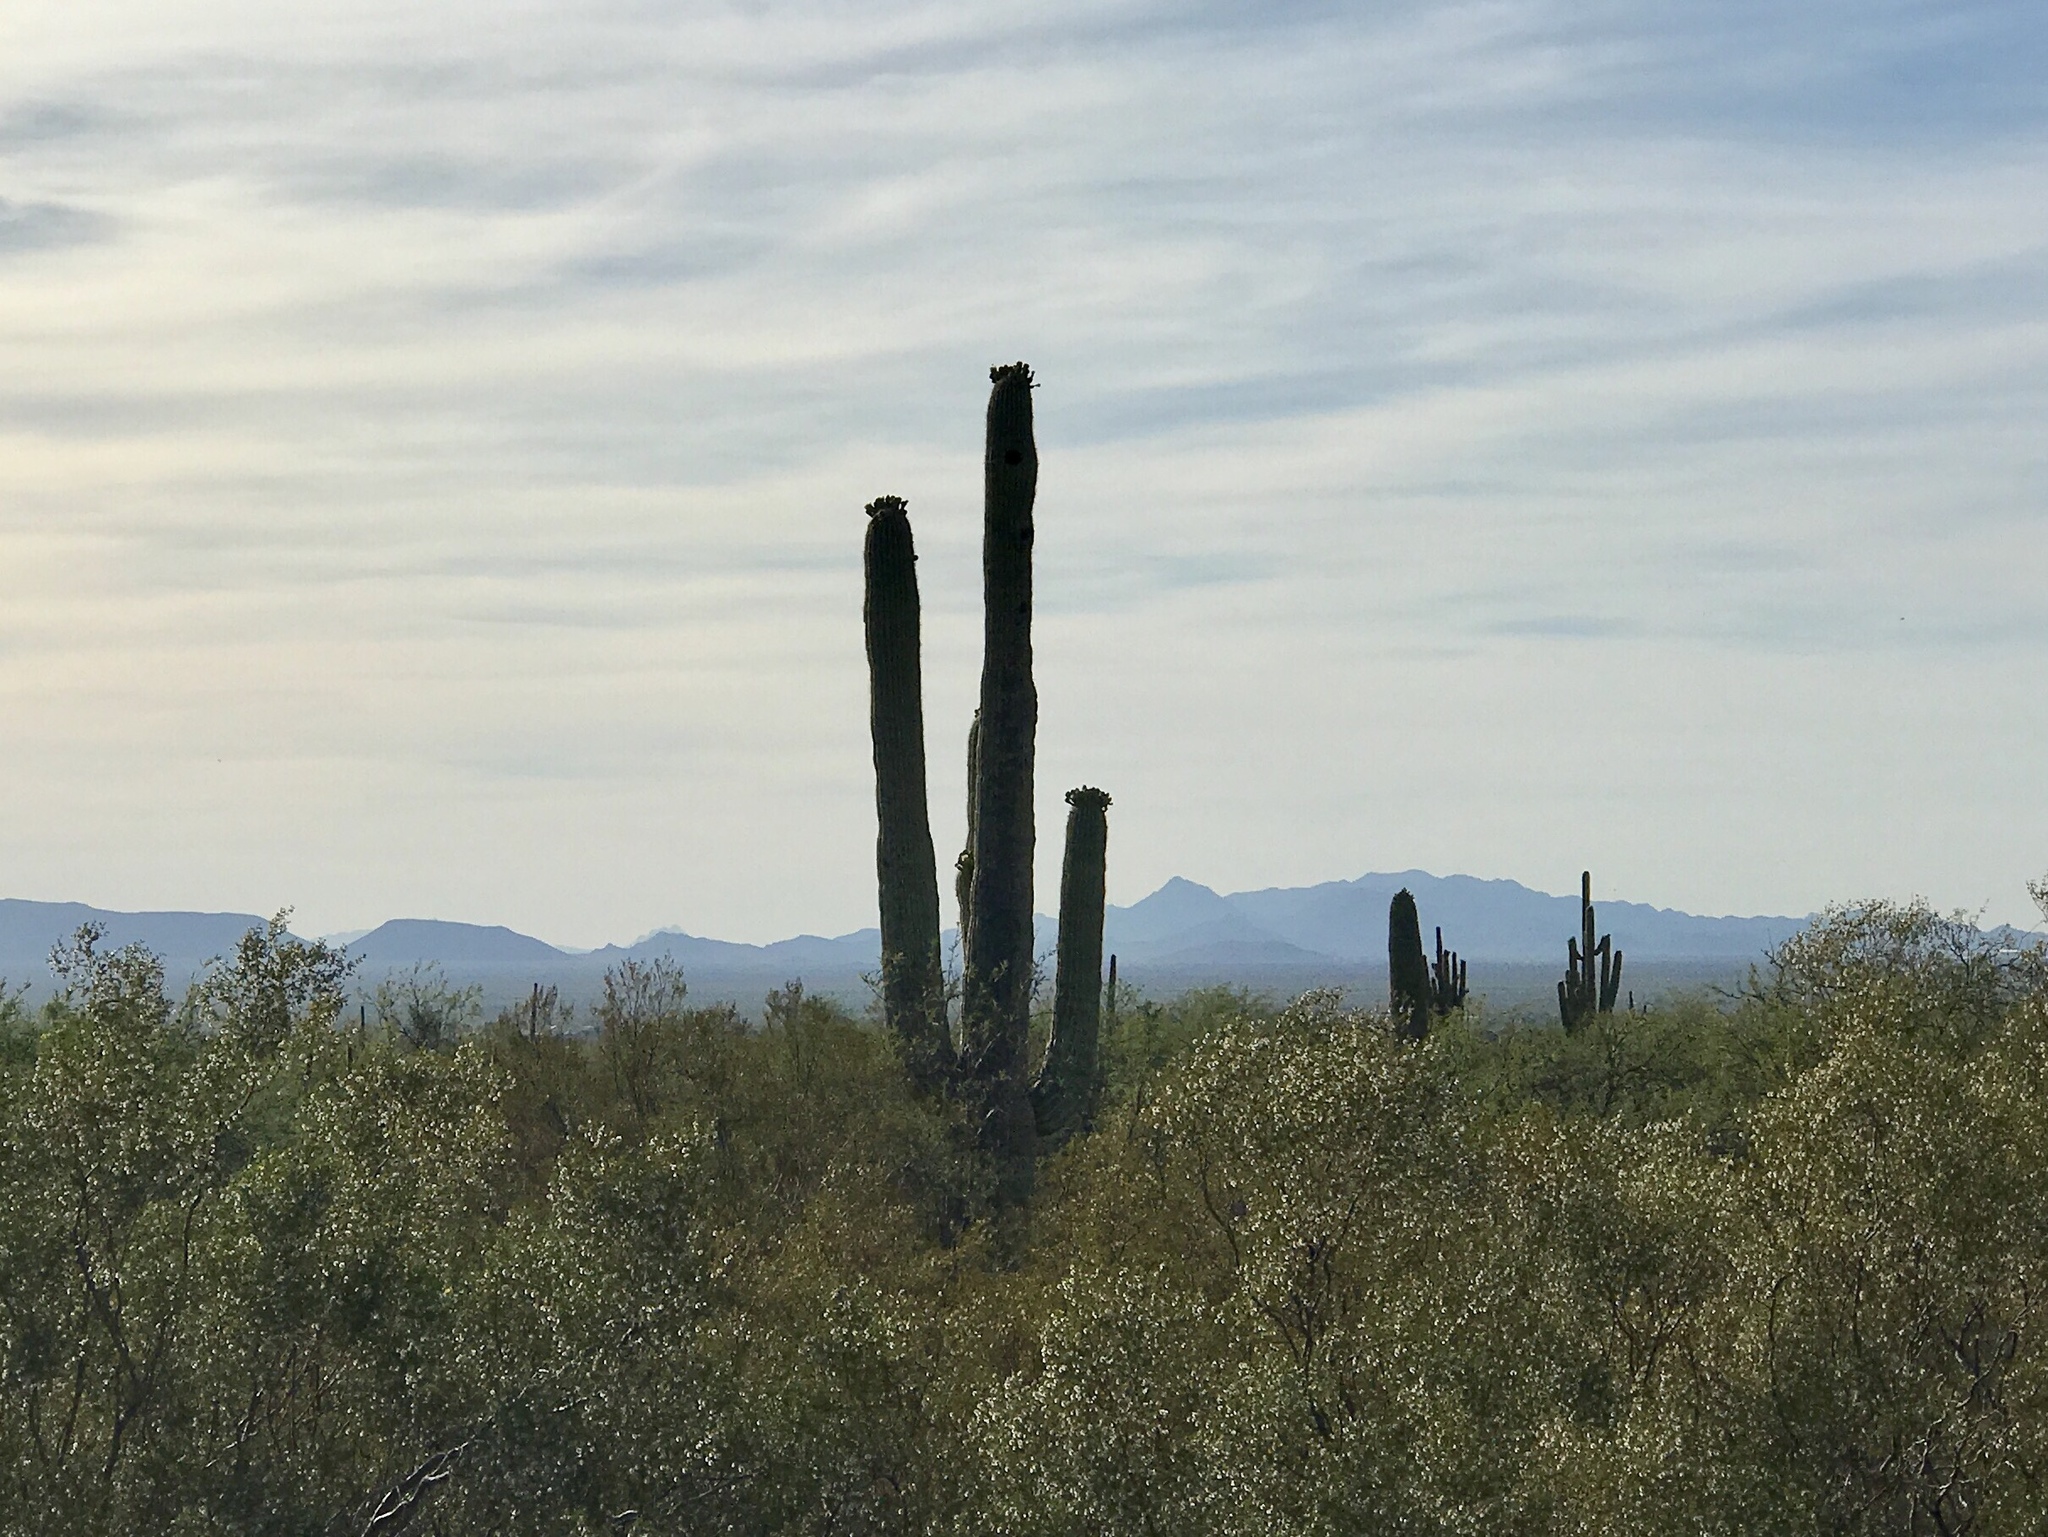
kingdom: Plantae
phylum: Tracheophyta
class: Magnoliopsida
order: Caryophyllales
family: Cactaceae
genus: Carnegiea
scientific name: Carnegiea gigantea
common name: Saguaro
